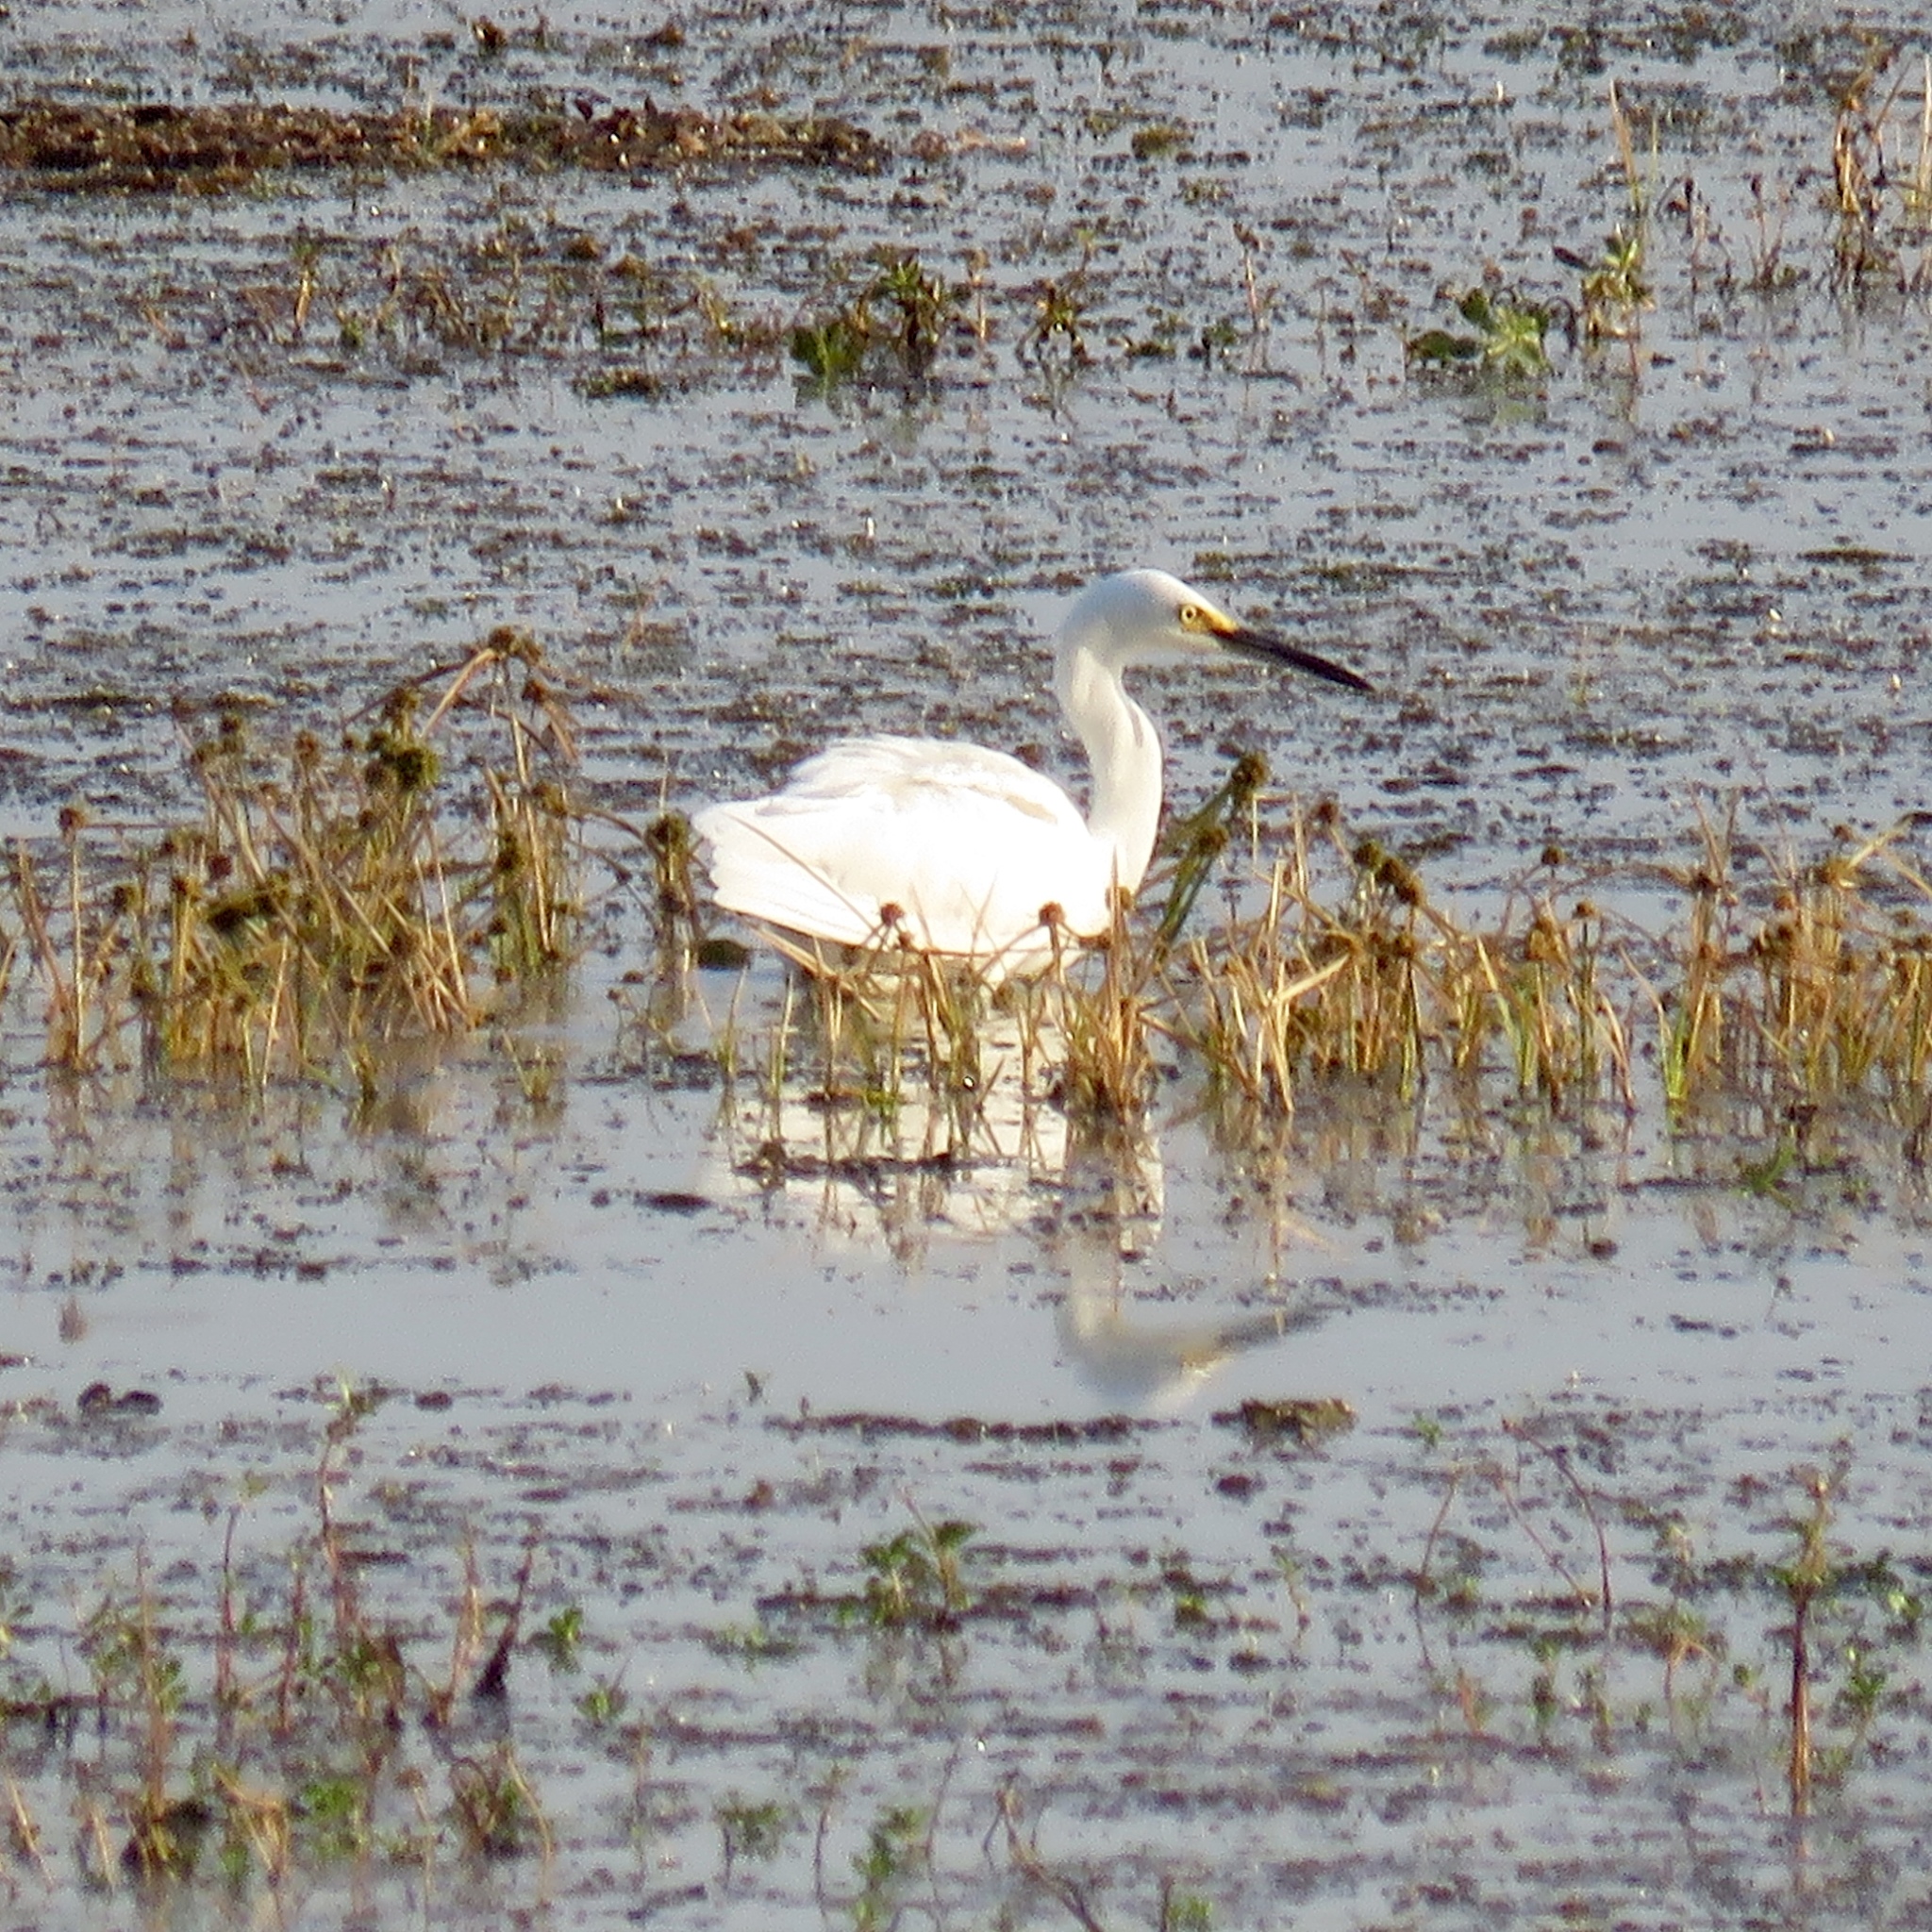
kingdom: Animalia
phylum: Chordata
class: Aves
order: Pelecaniformes
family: Ardeidae
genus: Egretta
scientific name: Egretta thula
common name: Snowy egret
